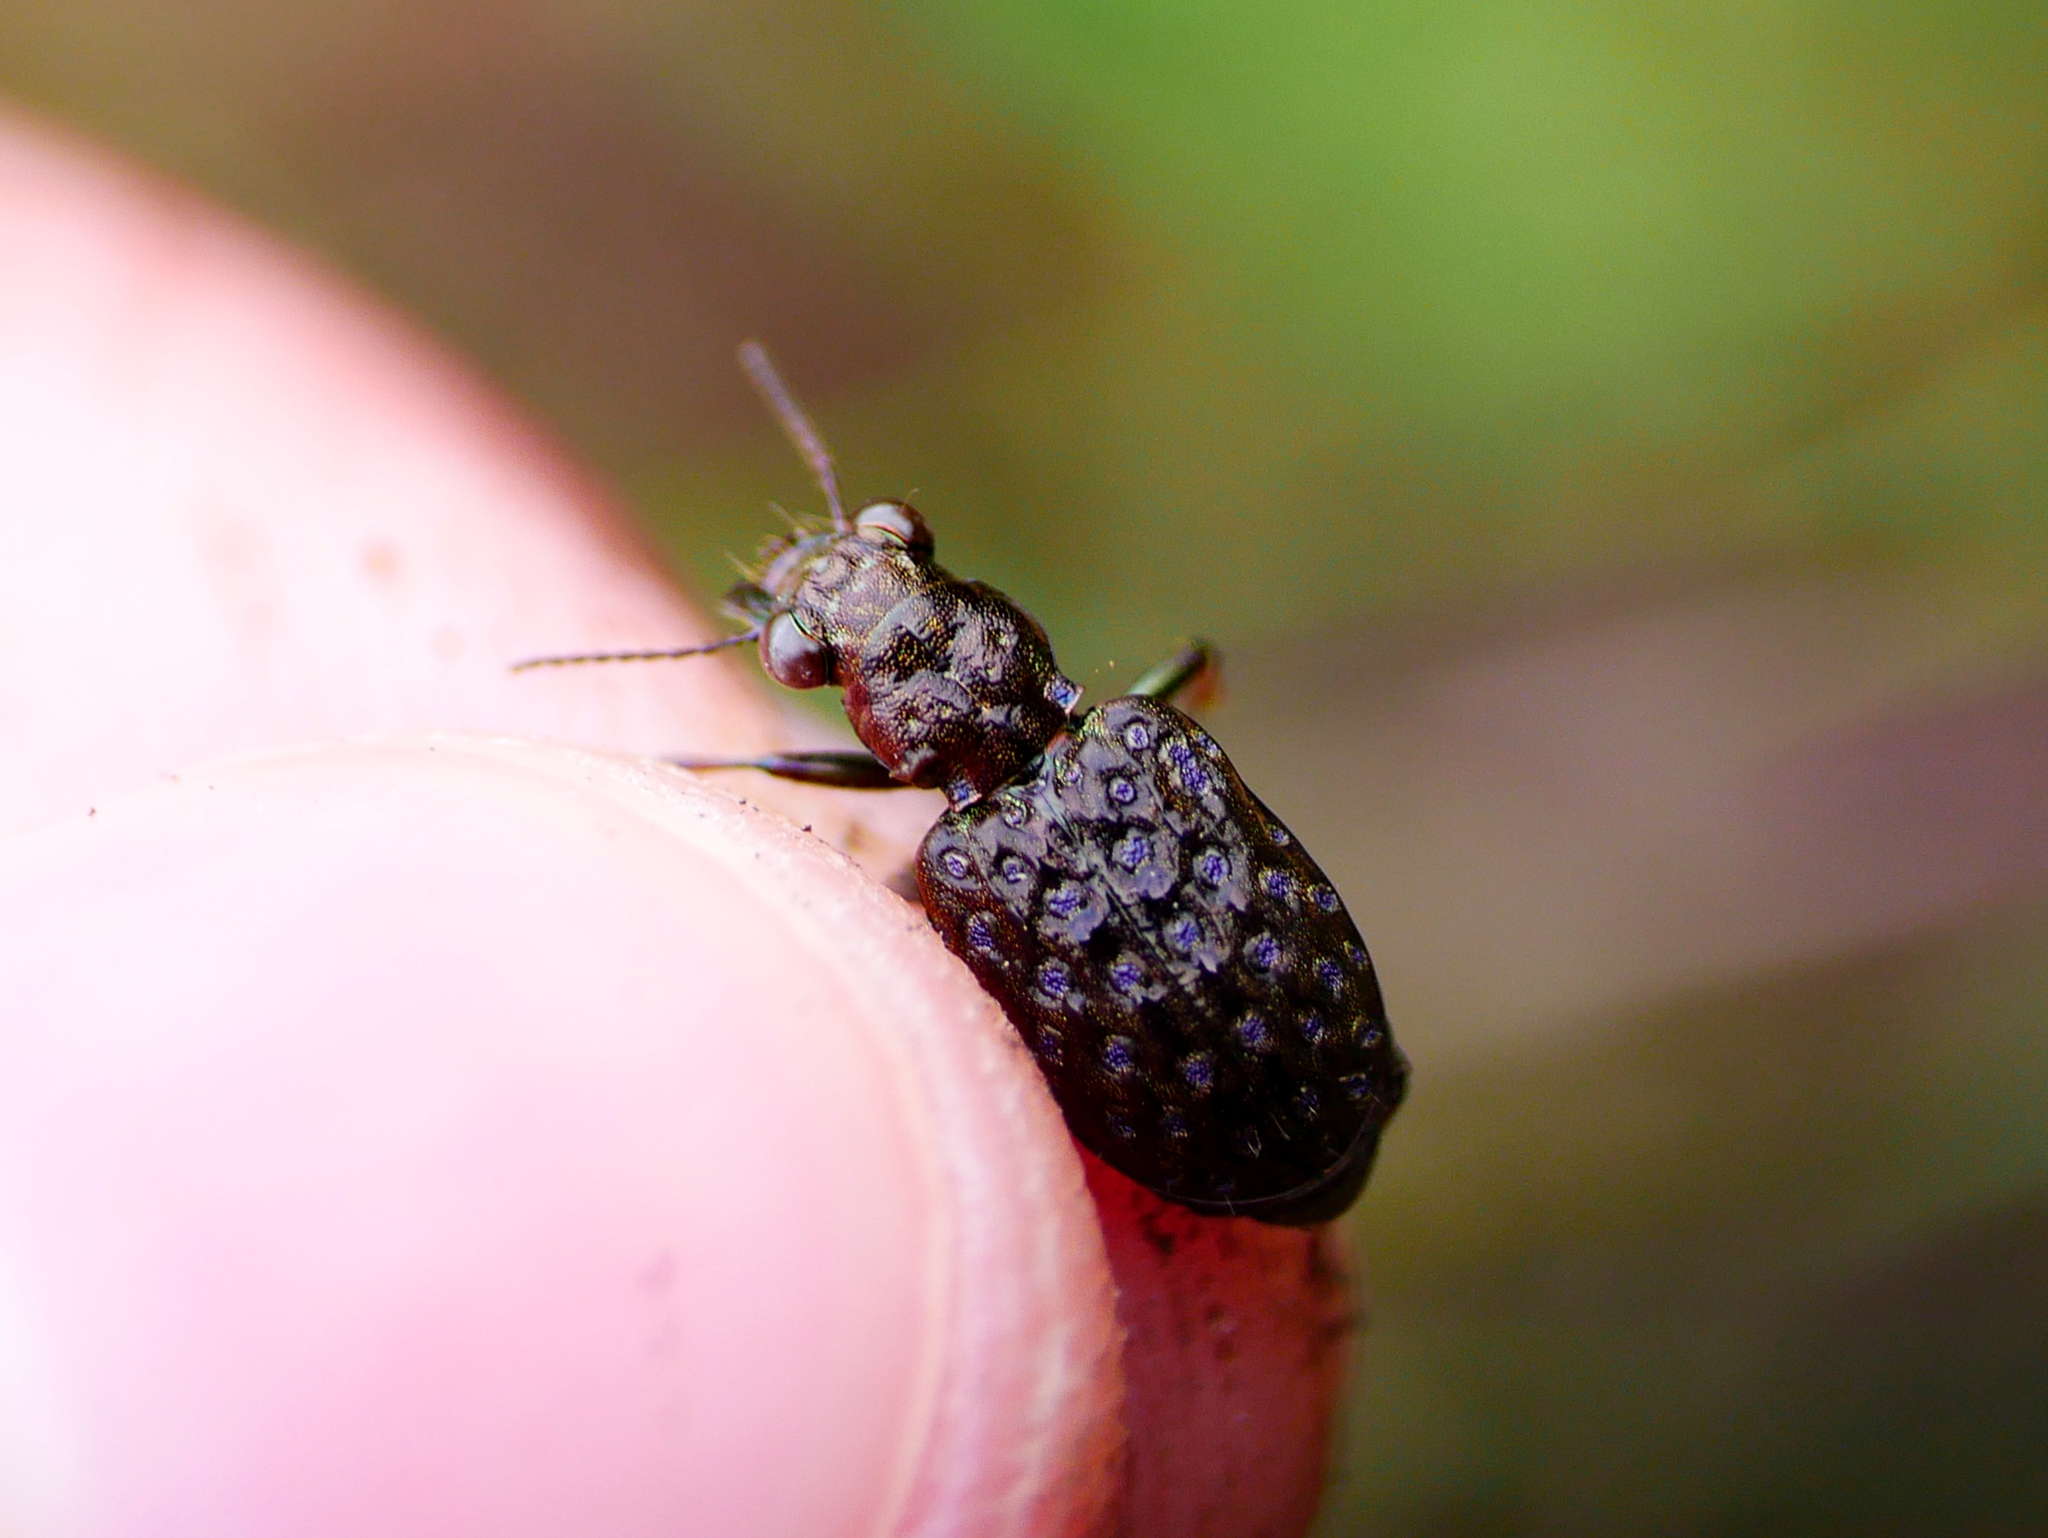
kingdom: Animalia
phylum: Arthropoda
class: Insecta
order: Coleoptera
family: Carabidae
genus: Elaphrus
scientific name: Elaphrus cupreus
